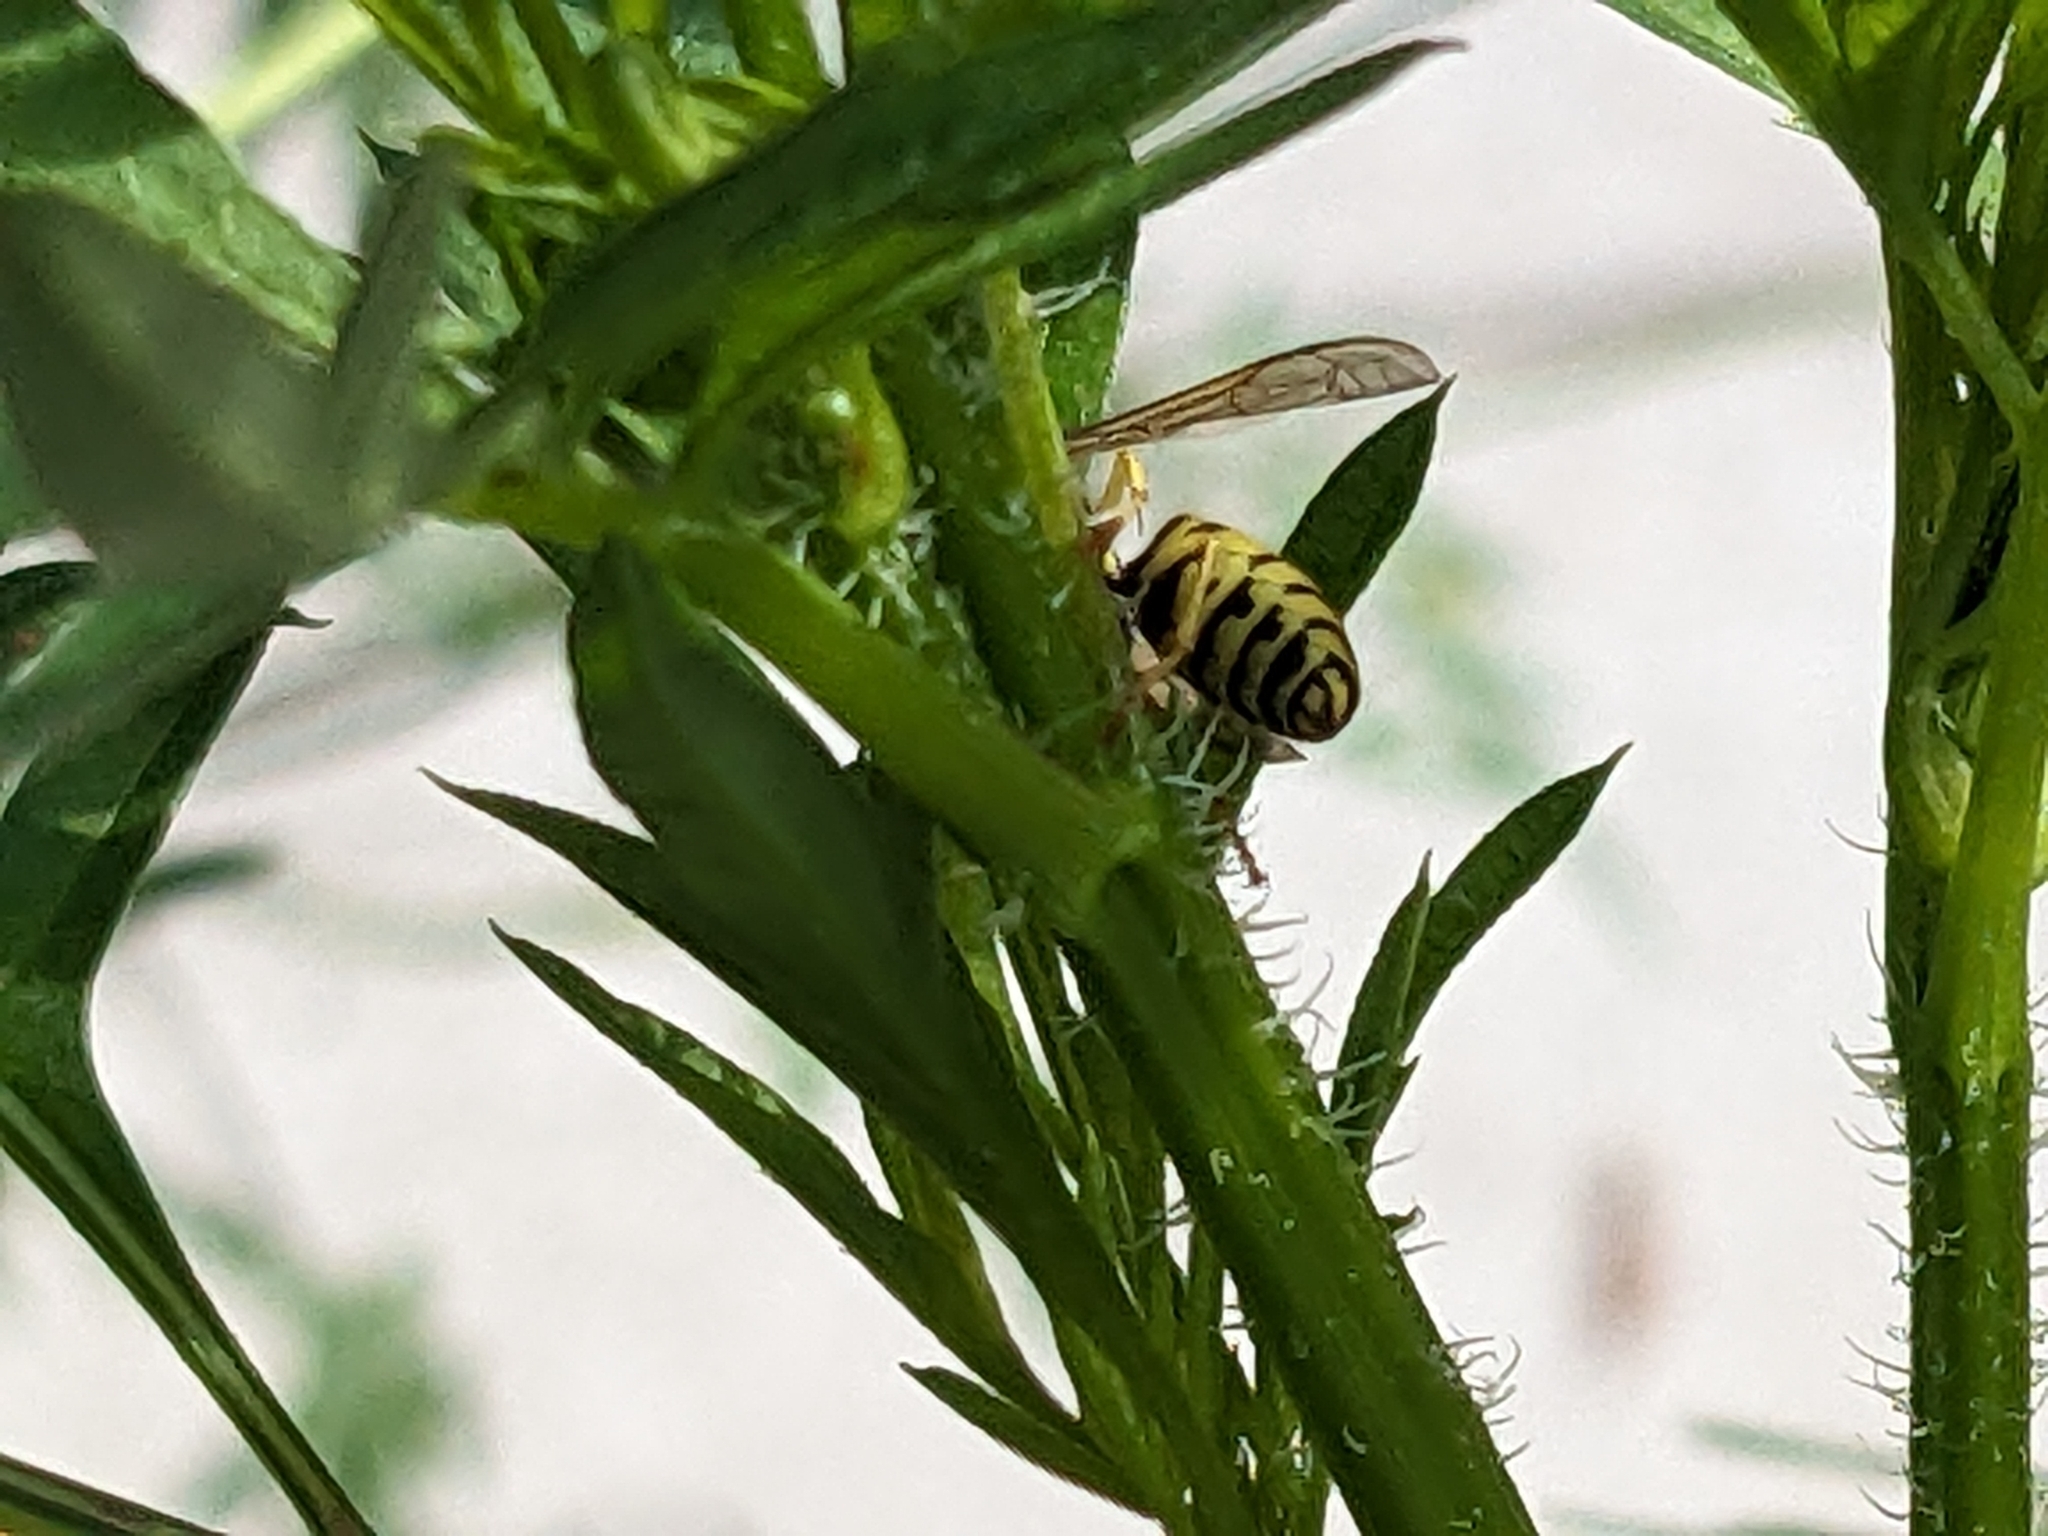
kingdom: Animalia
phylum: Arthropoda
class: Insecta
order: Hymenoptera
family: Vespidae
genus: Vespula
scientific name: Vespula maculifrons
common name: Eastern yellowjacket
